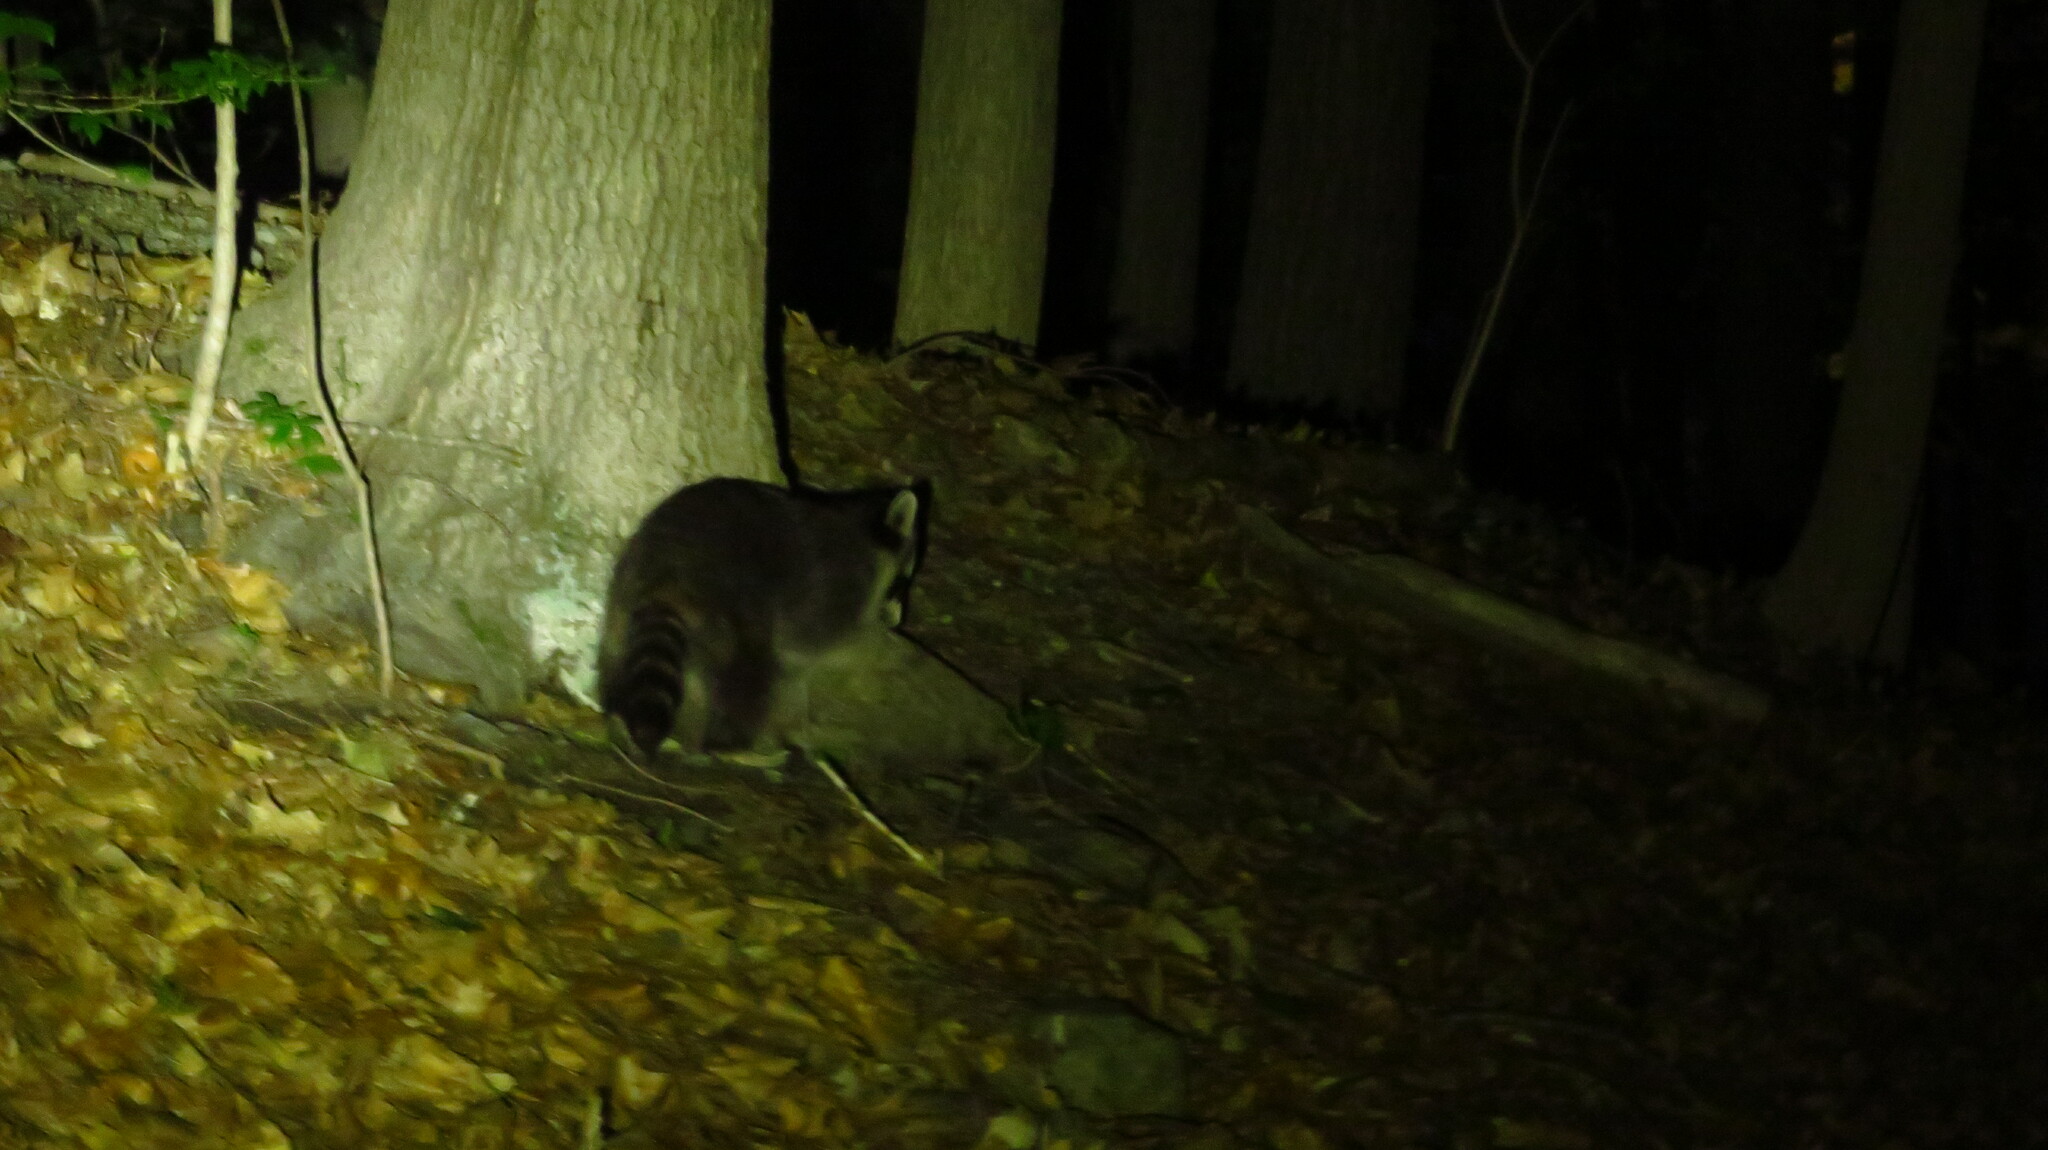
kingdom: Animalia
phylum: Chordata
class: Mammalia
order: Carnivora
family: Procyonidae
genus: Procyon
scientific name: Procyon lotor
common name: Raccoon
